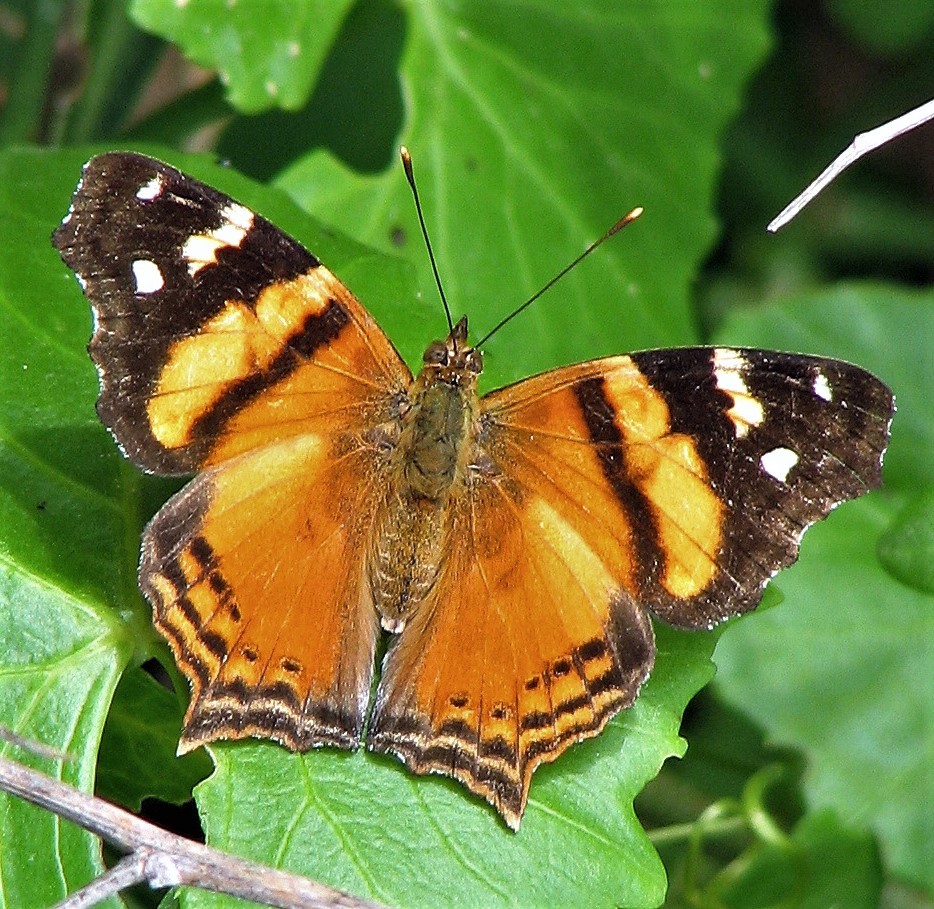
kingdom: Animalia
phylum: Arthropoda
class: Insecta
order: Lepidoptera
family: Nymphalidae
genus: Hypanartia
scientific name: Hypanartia bella
